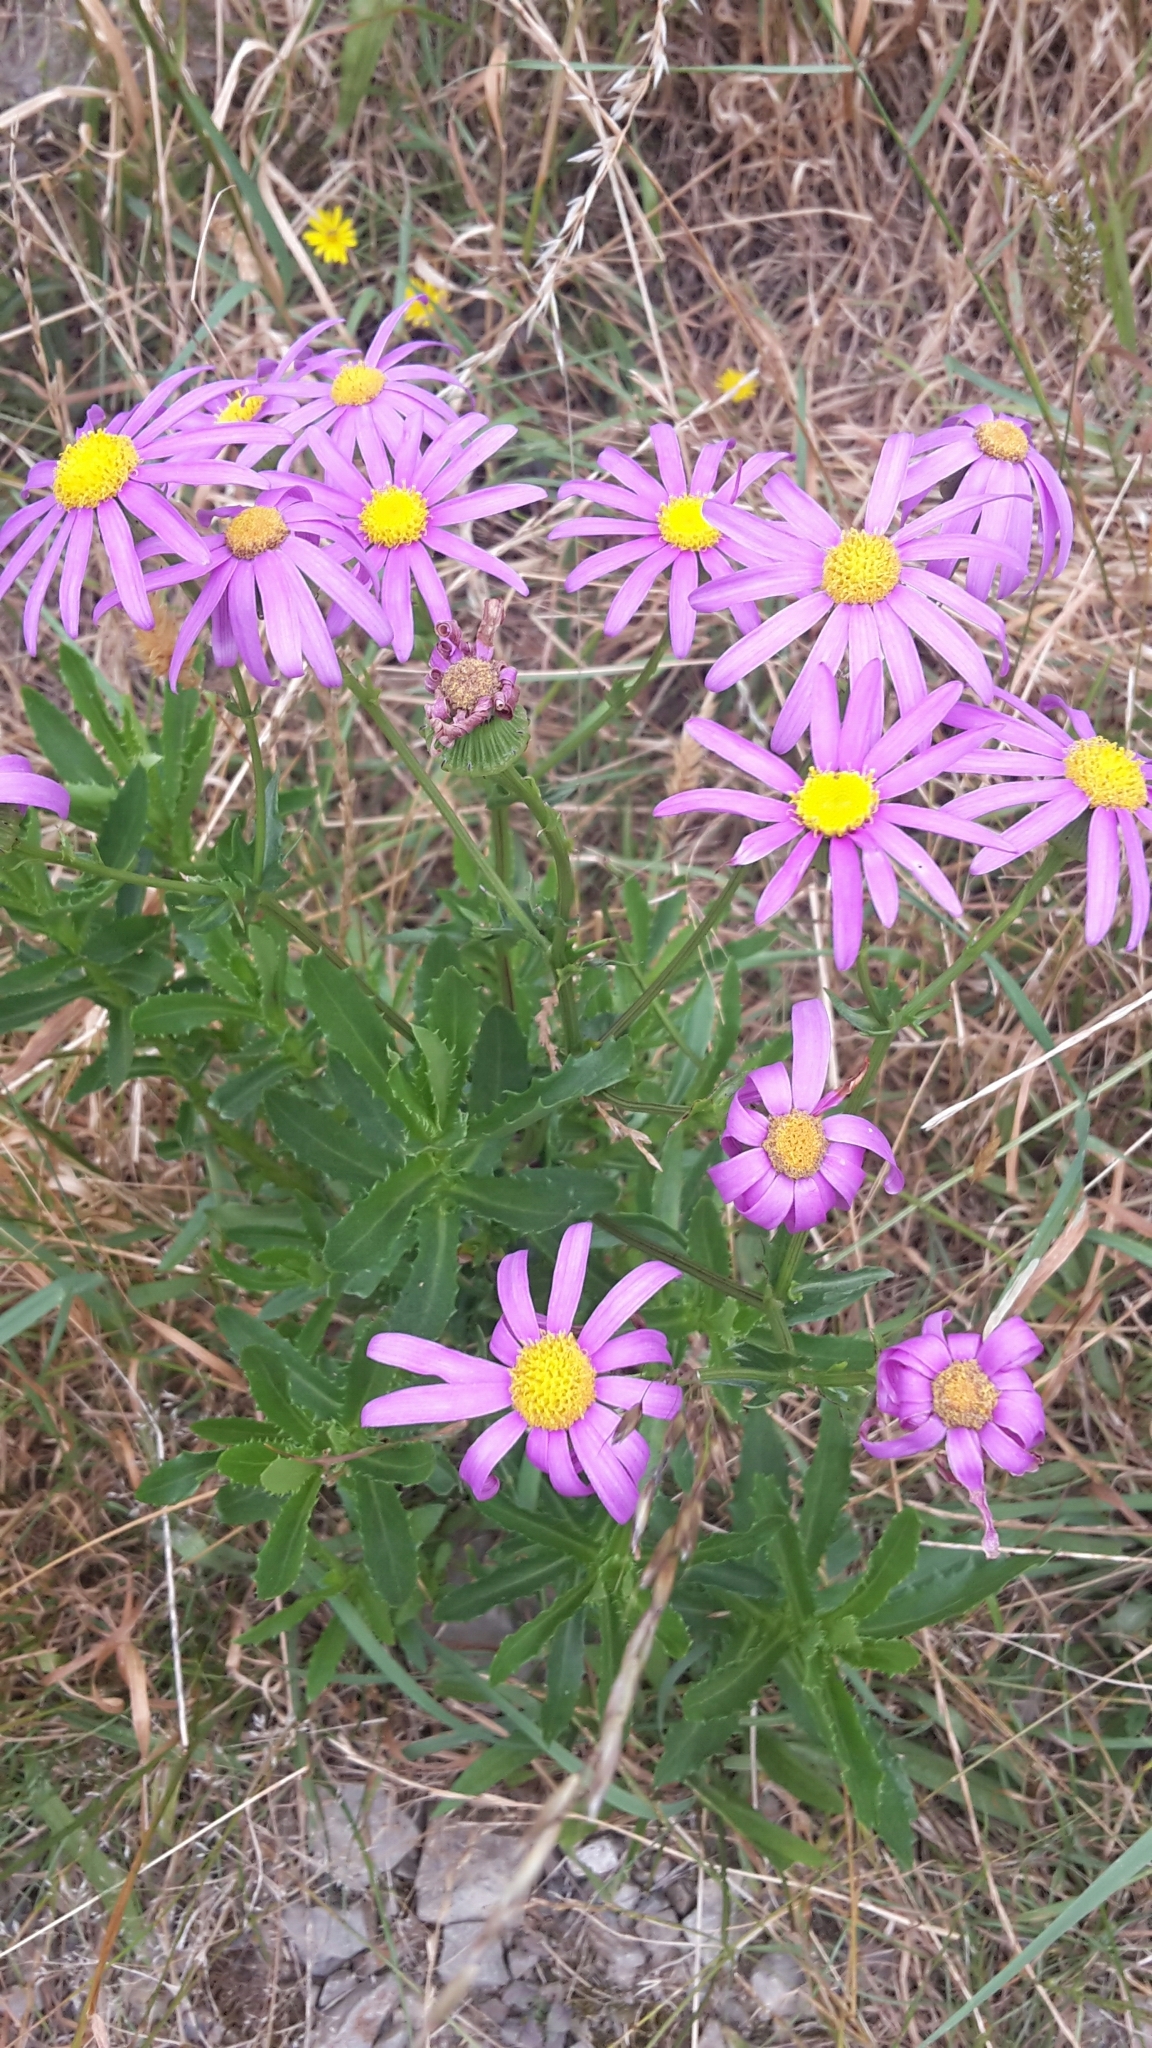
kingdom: Plantae
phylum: Tracheophyta
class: Magnoliopsida
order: Asterales
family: Asteraceae
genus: Senecio
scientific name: Senecio glastifolius
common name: Woad-leaved ragwort
